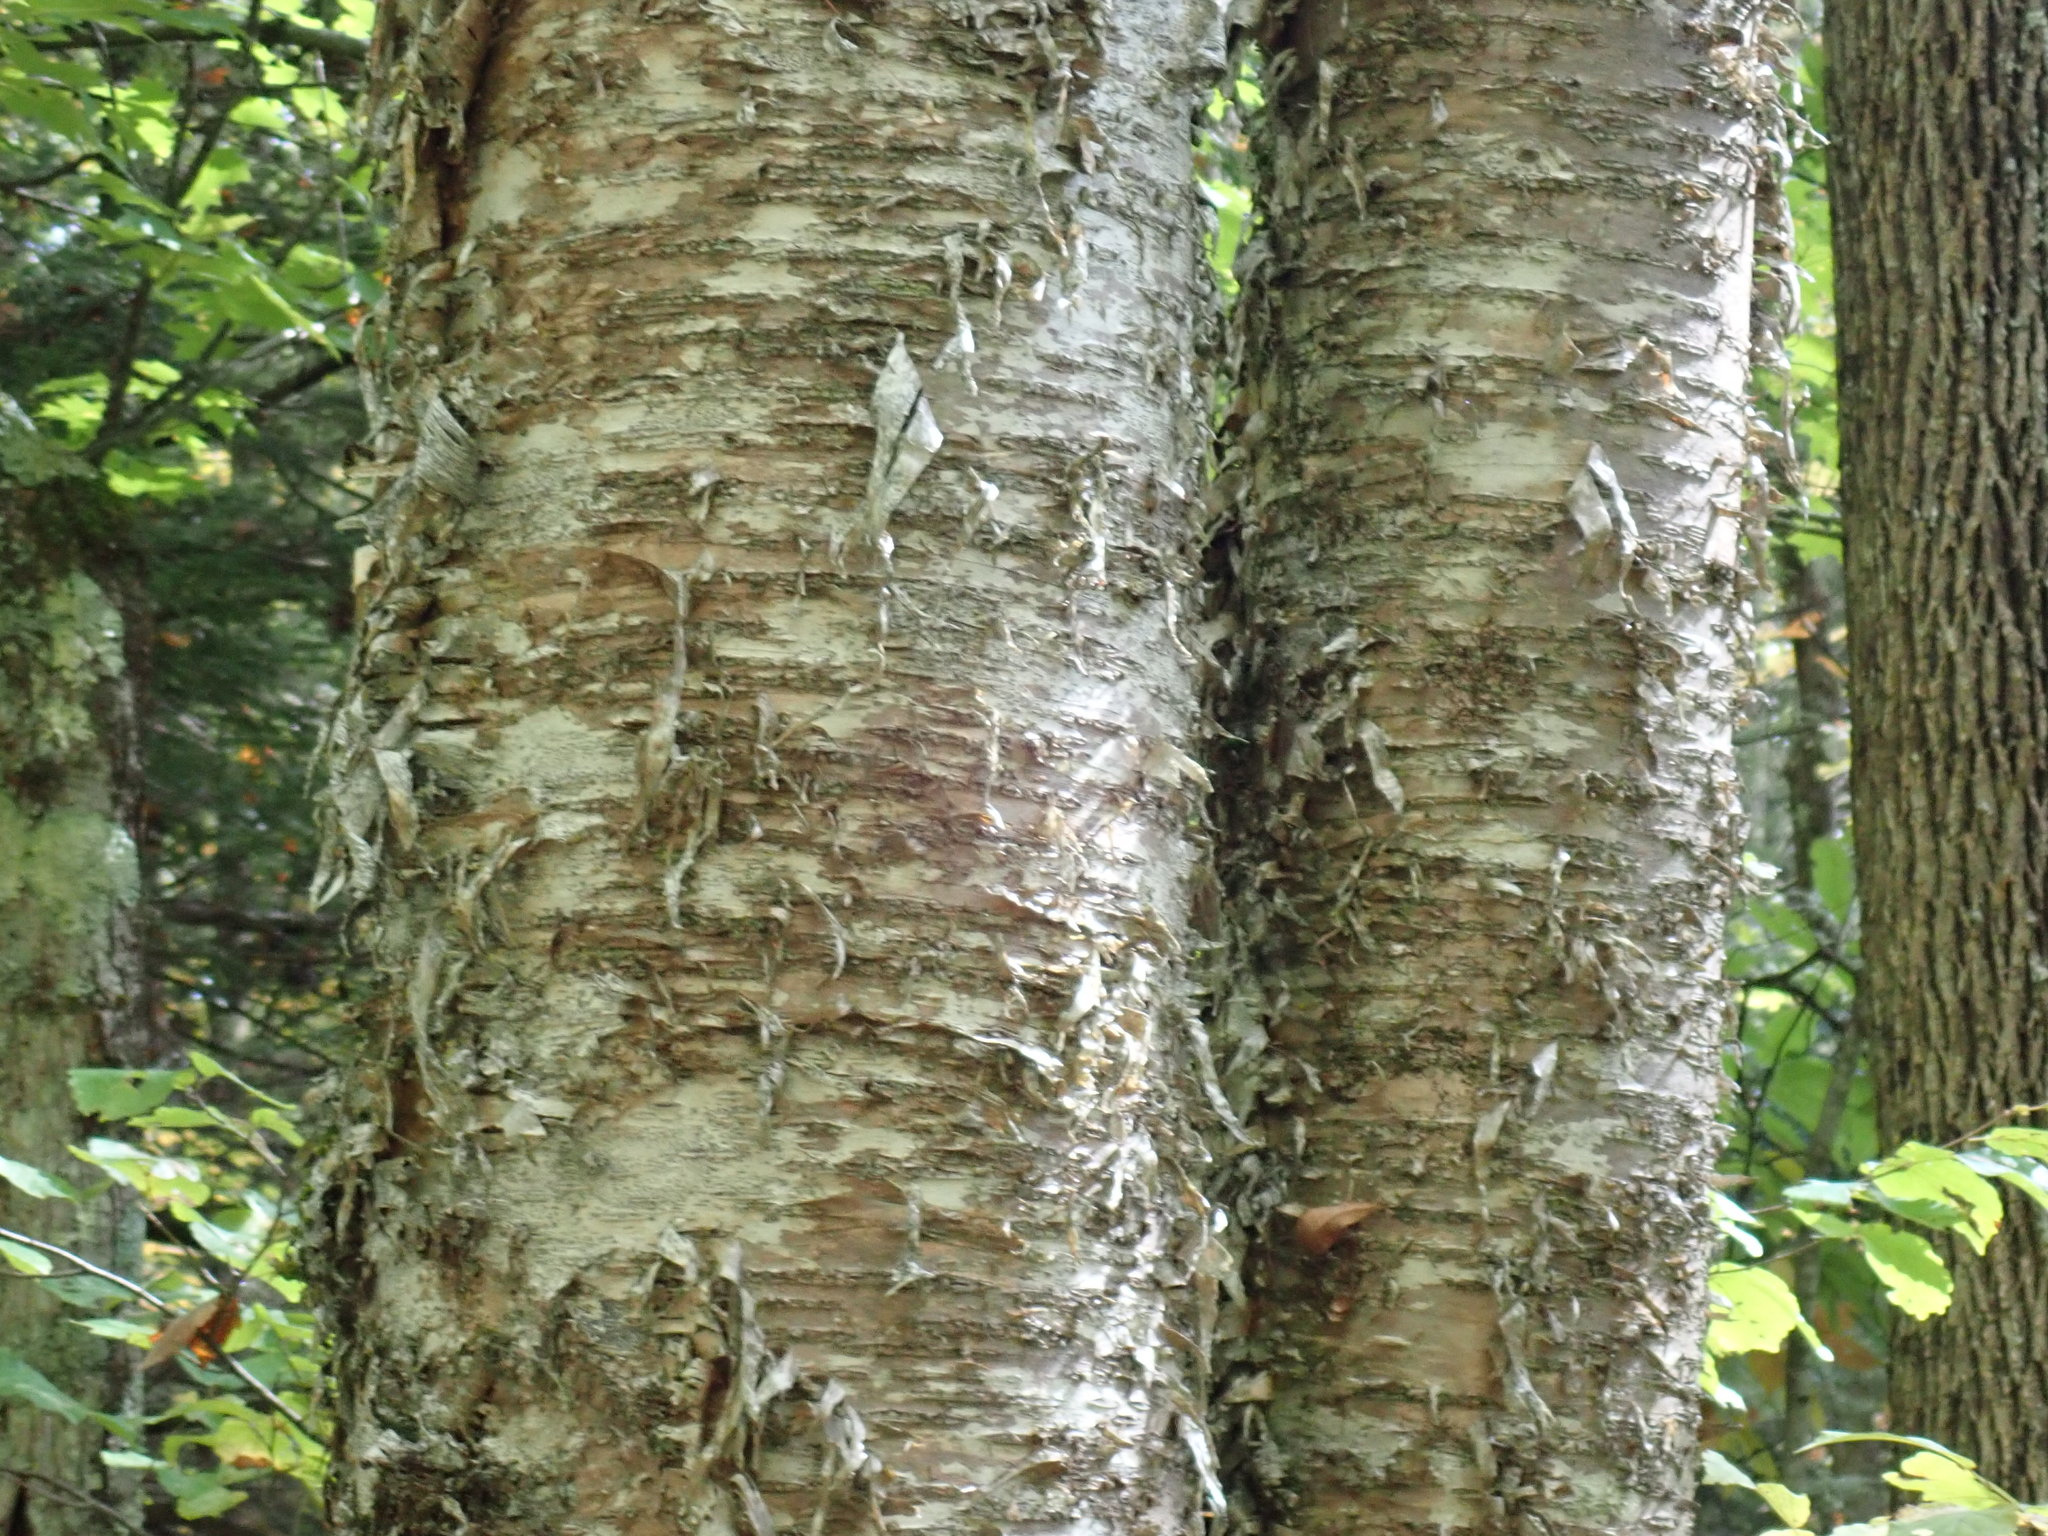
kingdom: Plantae
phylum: Tracheophyta
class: Magnoliopsida
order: Fagales
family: Betulaceae
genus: Betula
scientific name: Betula alleghaniensis
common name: Yellow birch
